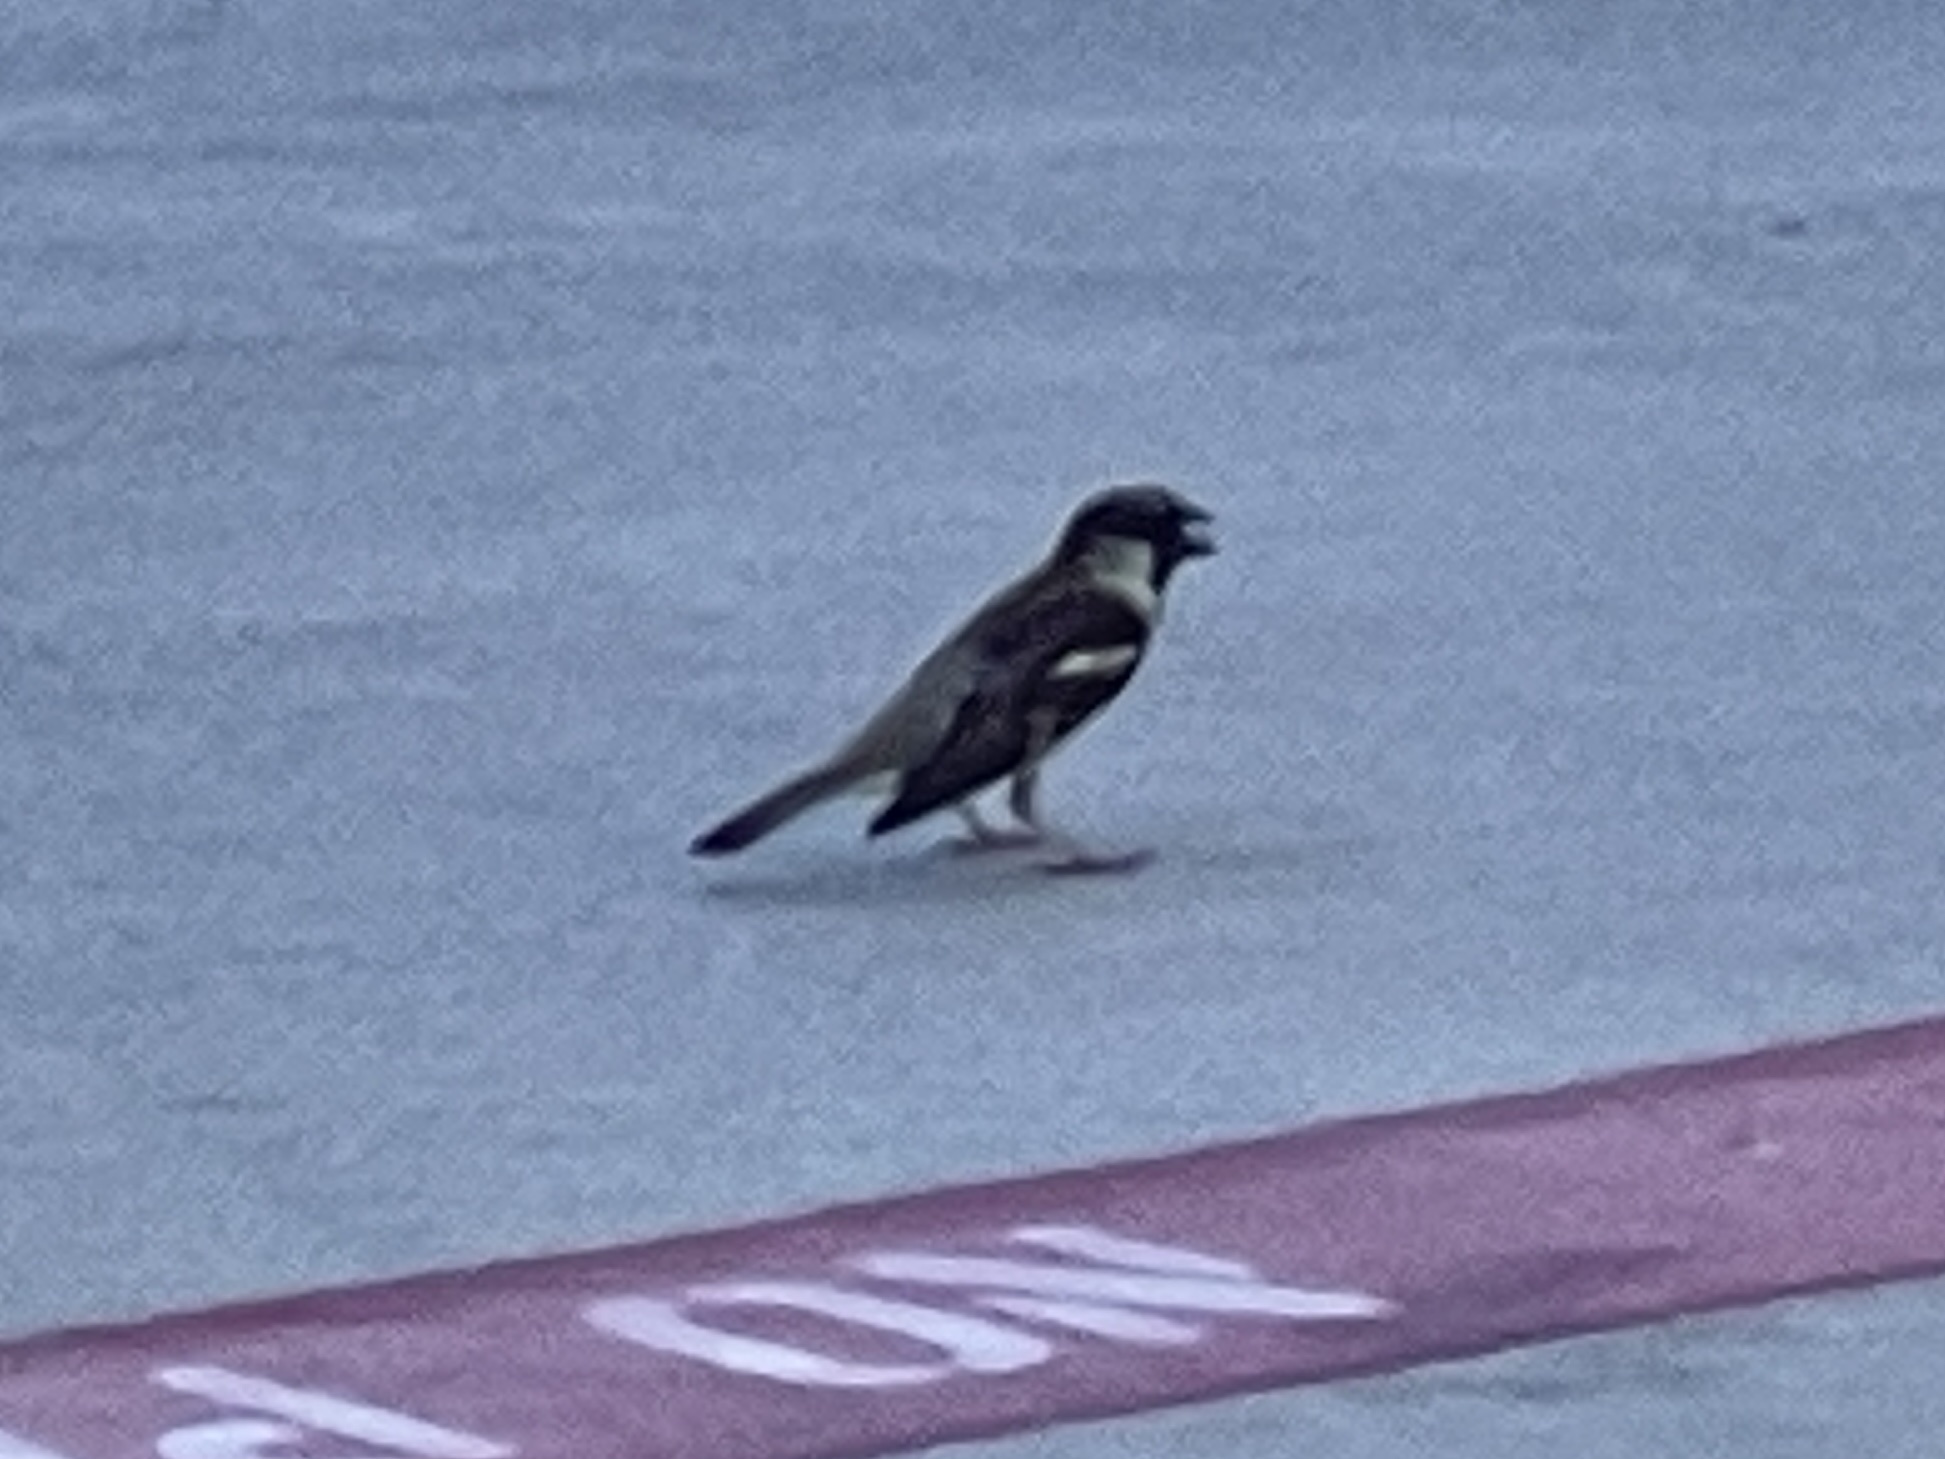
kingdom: Animalia
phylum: Chordata
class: Aves
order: Passeriformes
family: Passeridae
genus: Passer
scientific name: Passer domesticus
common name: House sparrow
